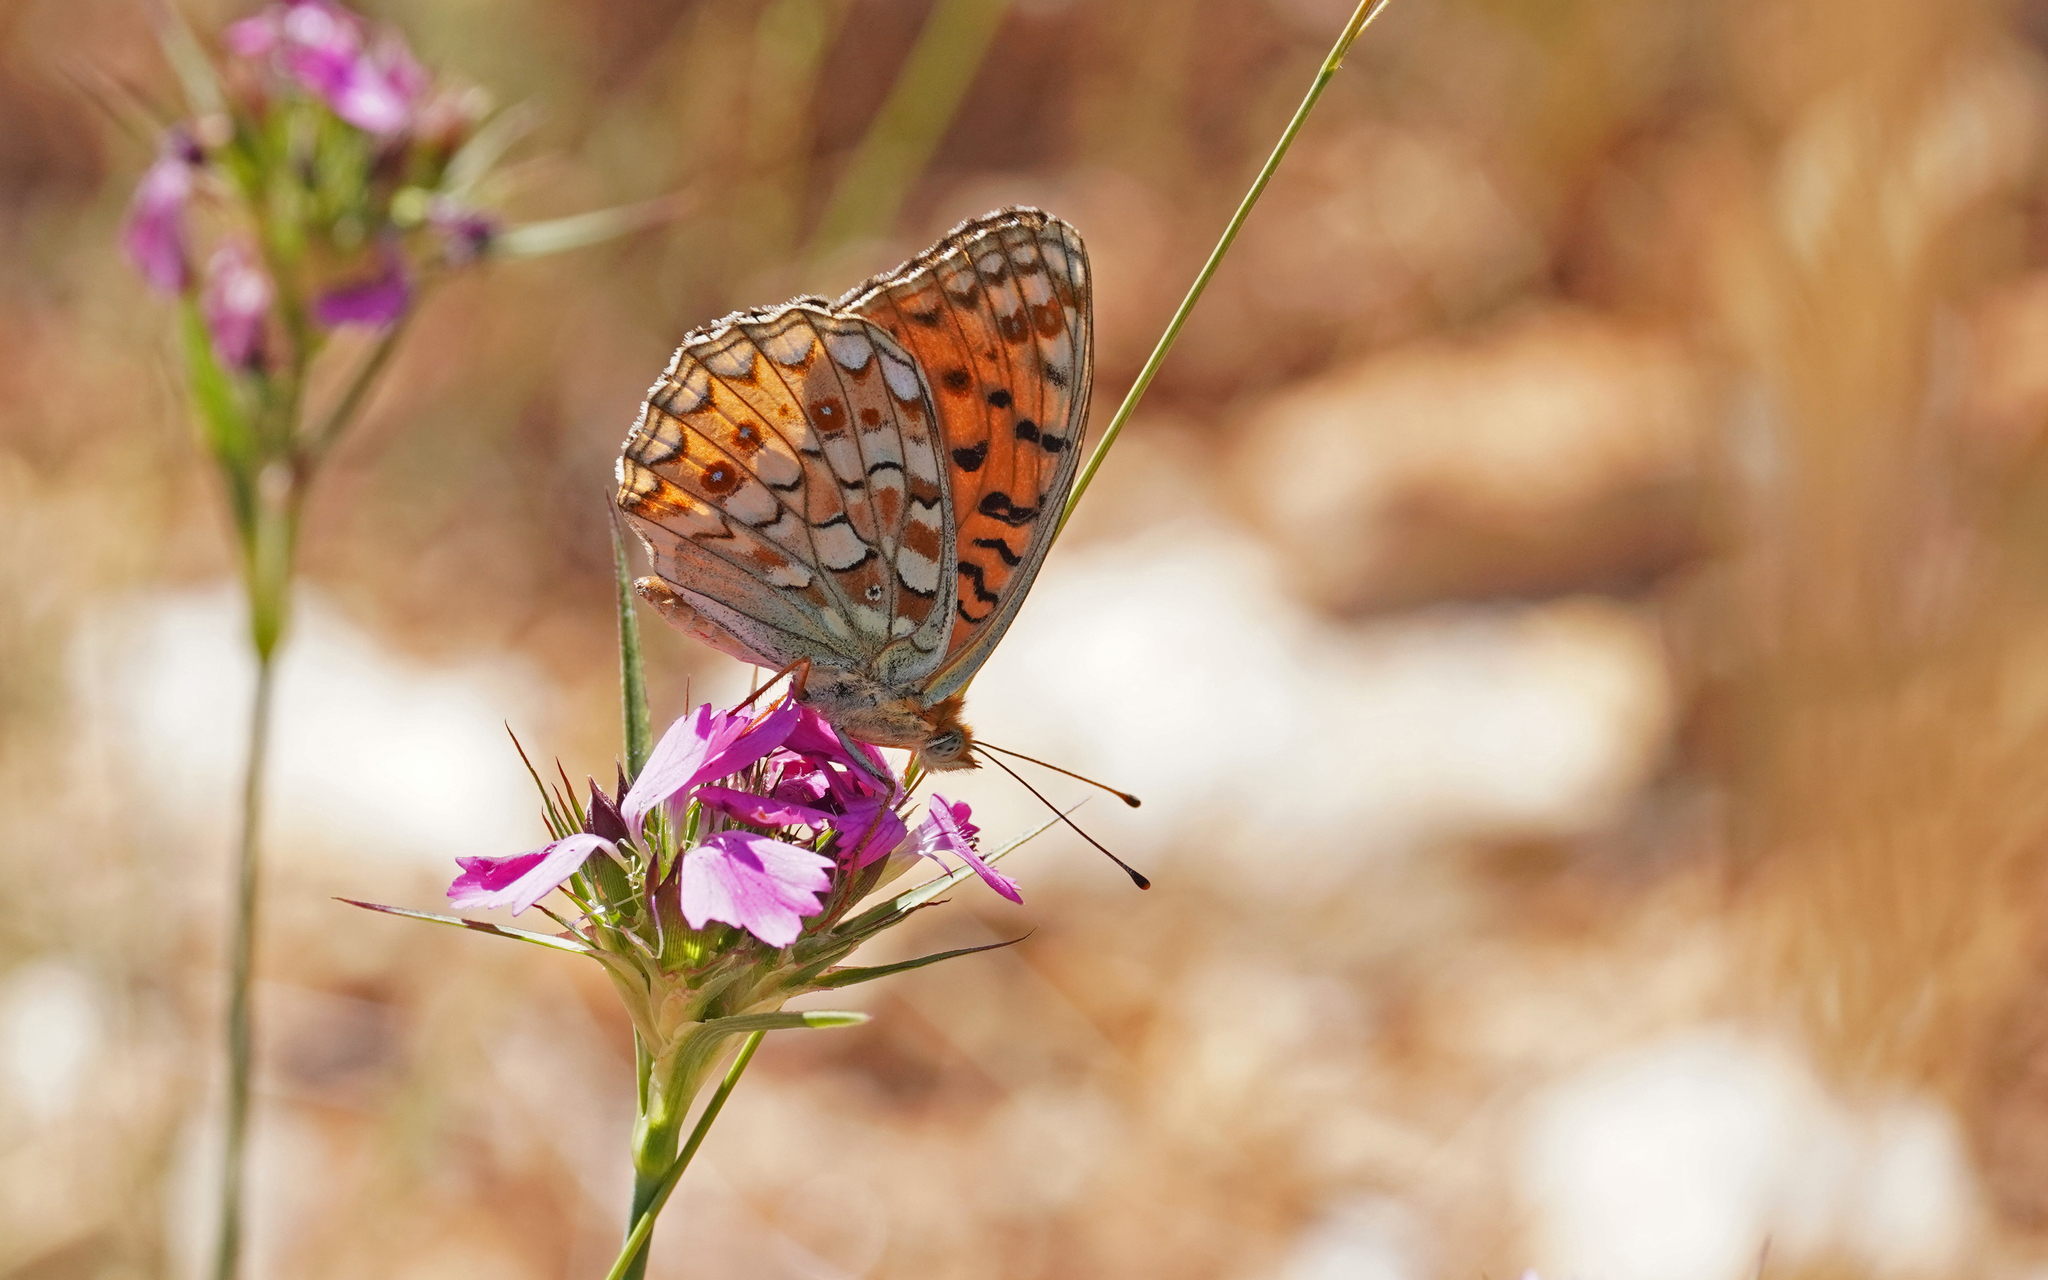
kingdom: Animalia
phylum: Arthropoda
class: Insecta
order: Lepidoptera
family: Nymphalidae
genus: Fabriciana
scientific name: Fabriciana niobe
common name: Niobe fritillary
